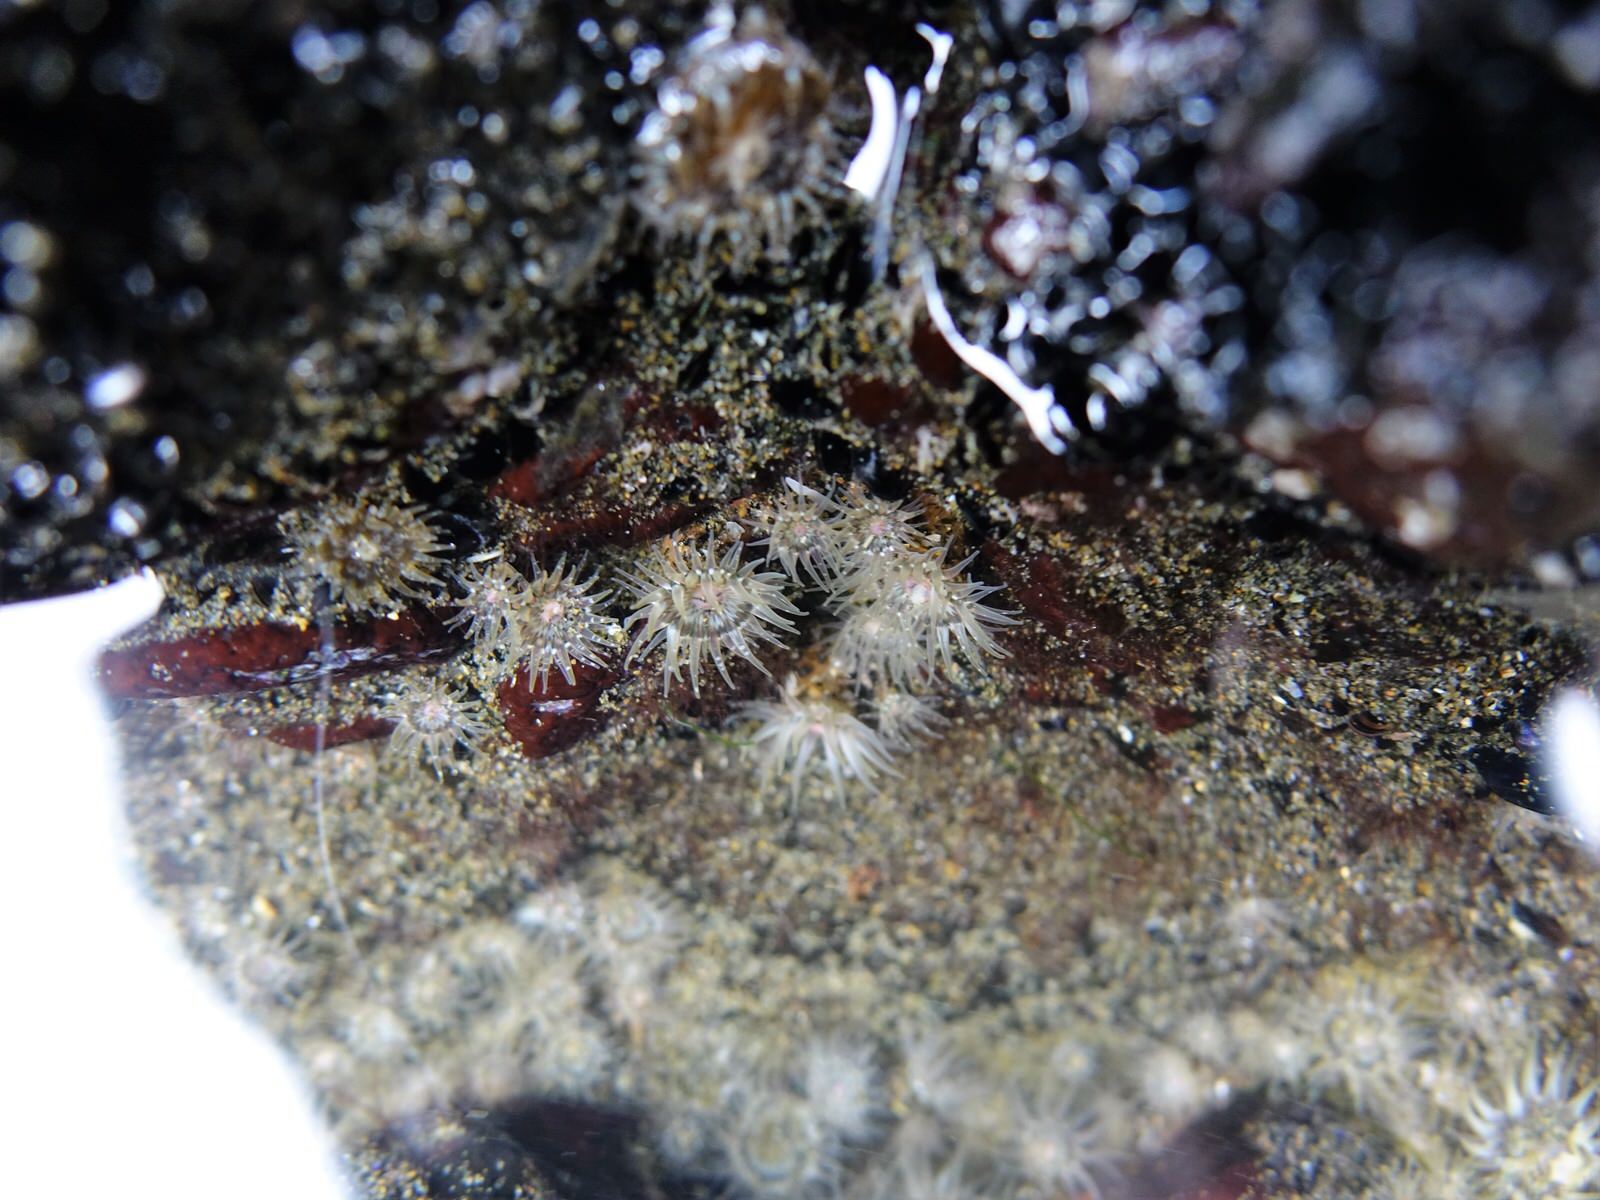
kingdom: Animalia
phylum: Cnidaria
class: Anthozoa
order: Actiniaria
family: Actiniidae
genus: Anthopleura
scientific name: Anthopleura minima
